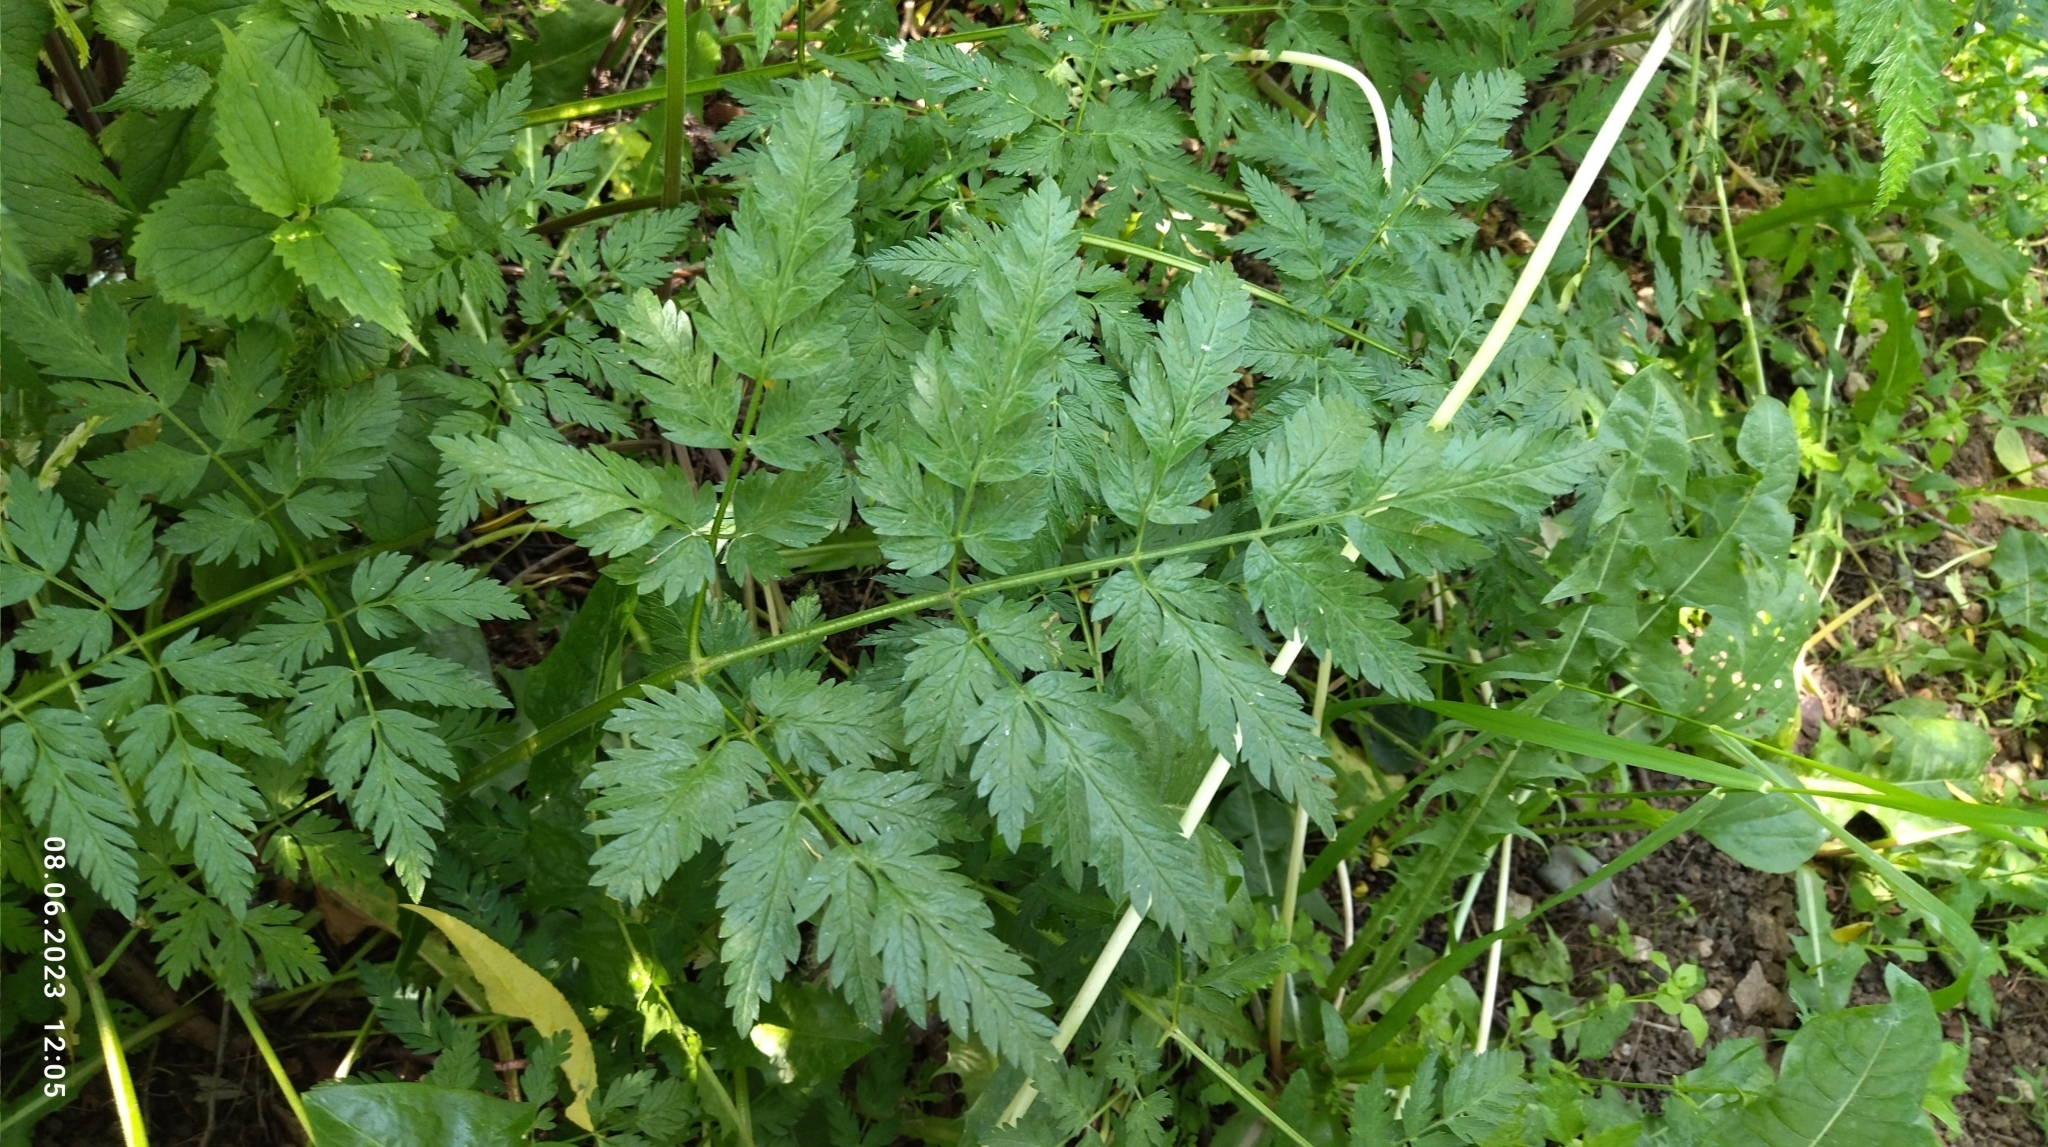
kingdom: Plantae
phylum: Tracheophyta
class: Magnoliopsida
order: Apiales
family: Apiaceae
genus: Anthriscus
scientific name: Anthriscus sylvestris
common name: Cow parsley
